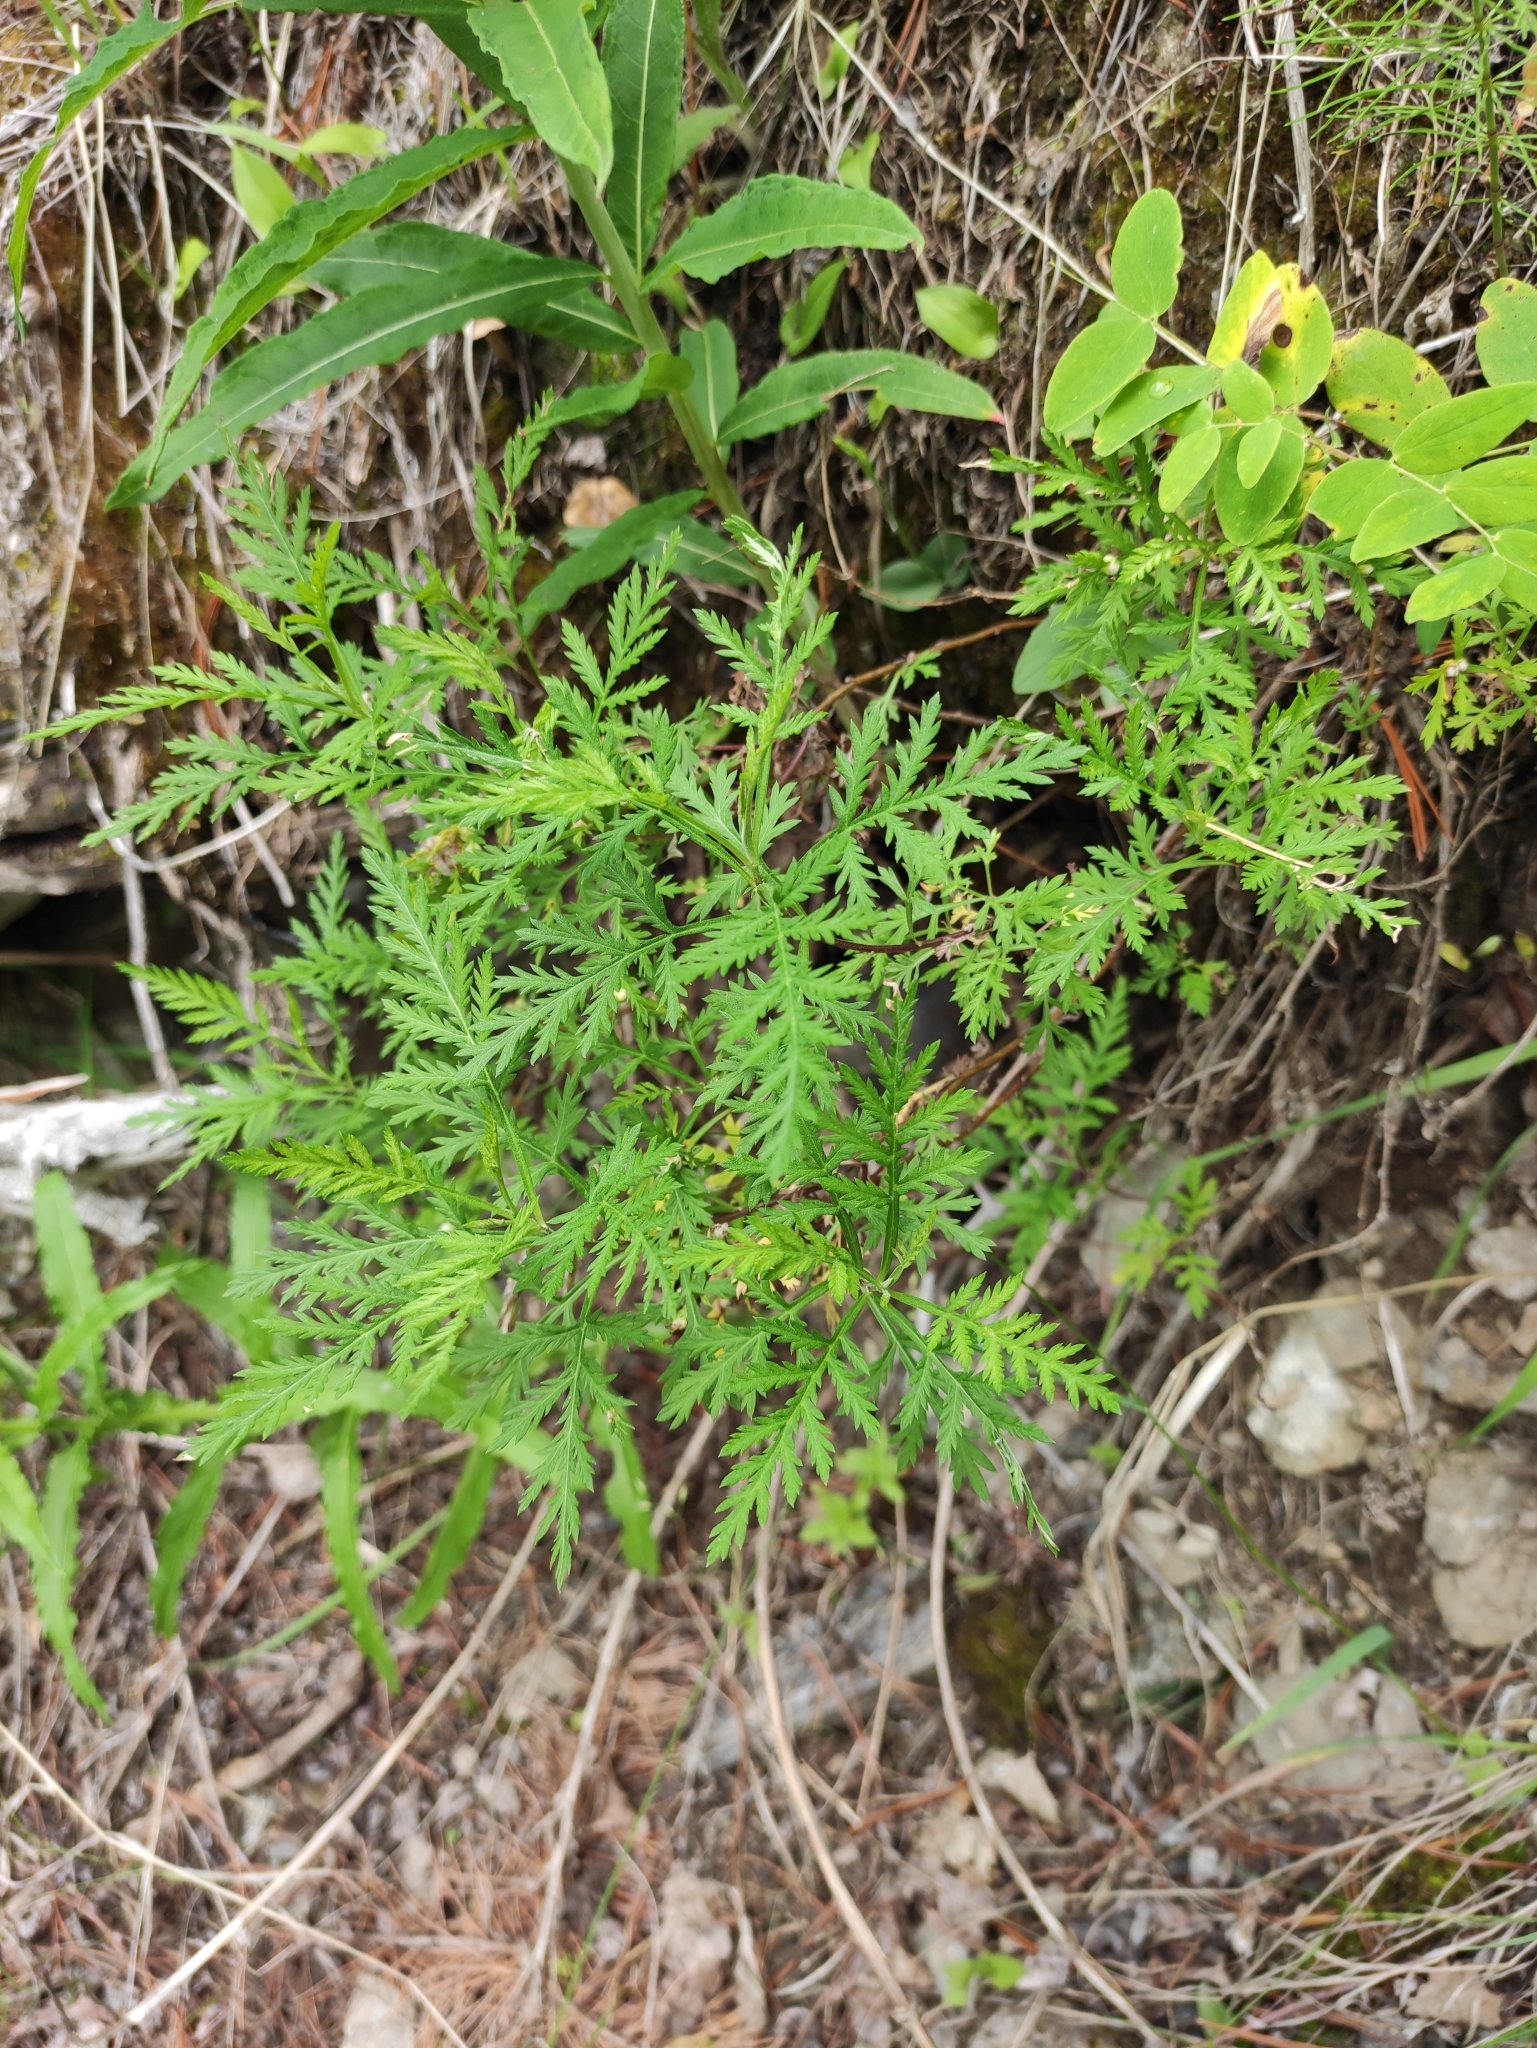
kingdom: Plantae
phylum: Tracheophyta
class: Magnoliopsida
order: Asterales
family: Asteraceae
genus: Artemisia
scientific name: Artemisia gmelinii
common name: Gmelin's wormwood
